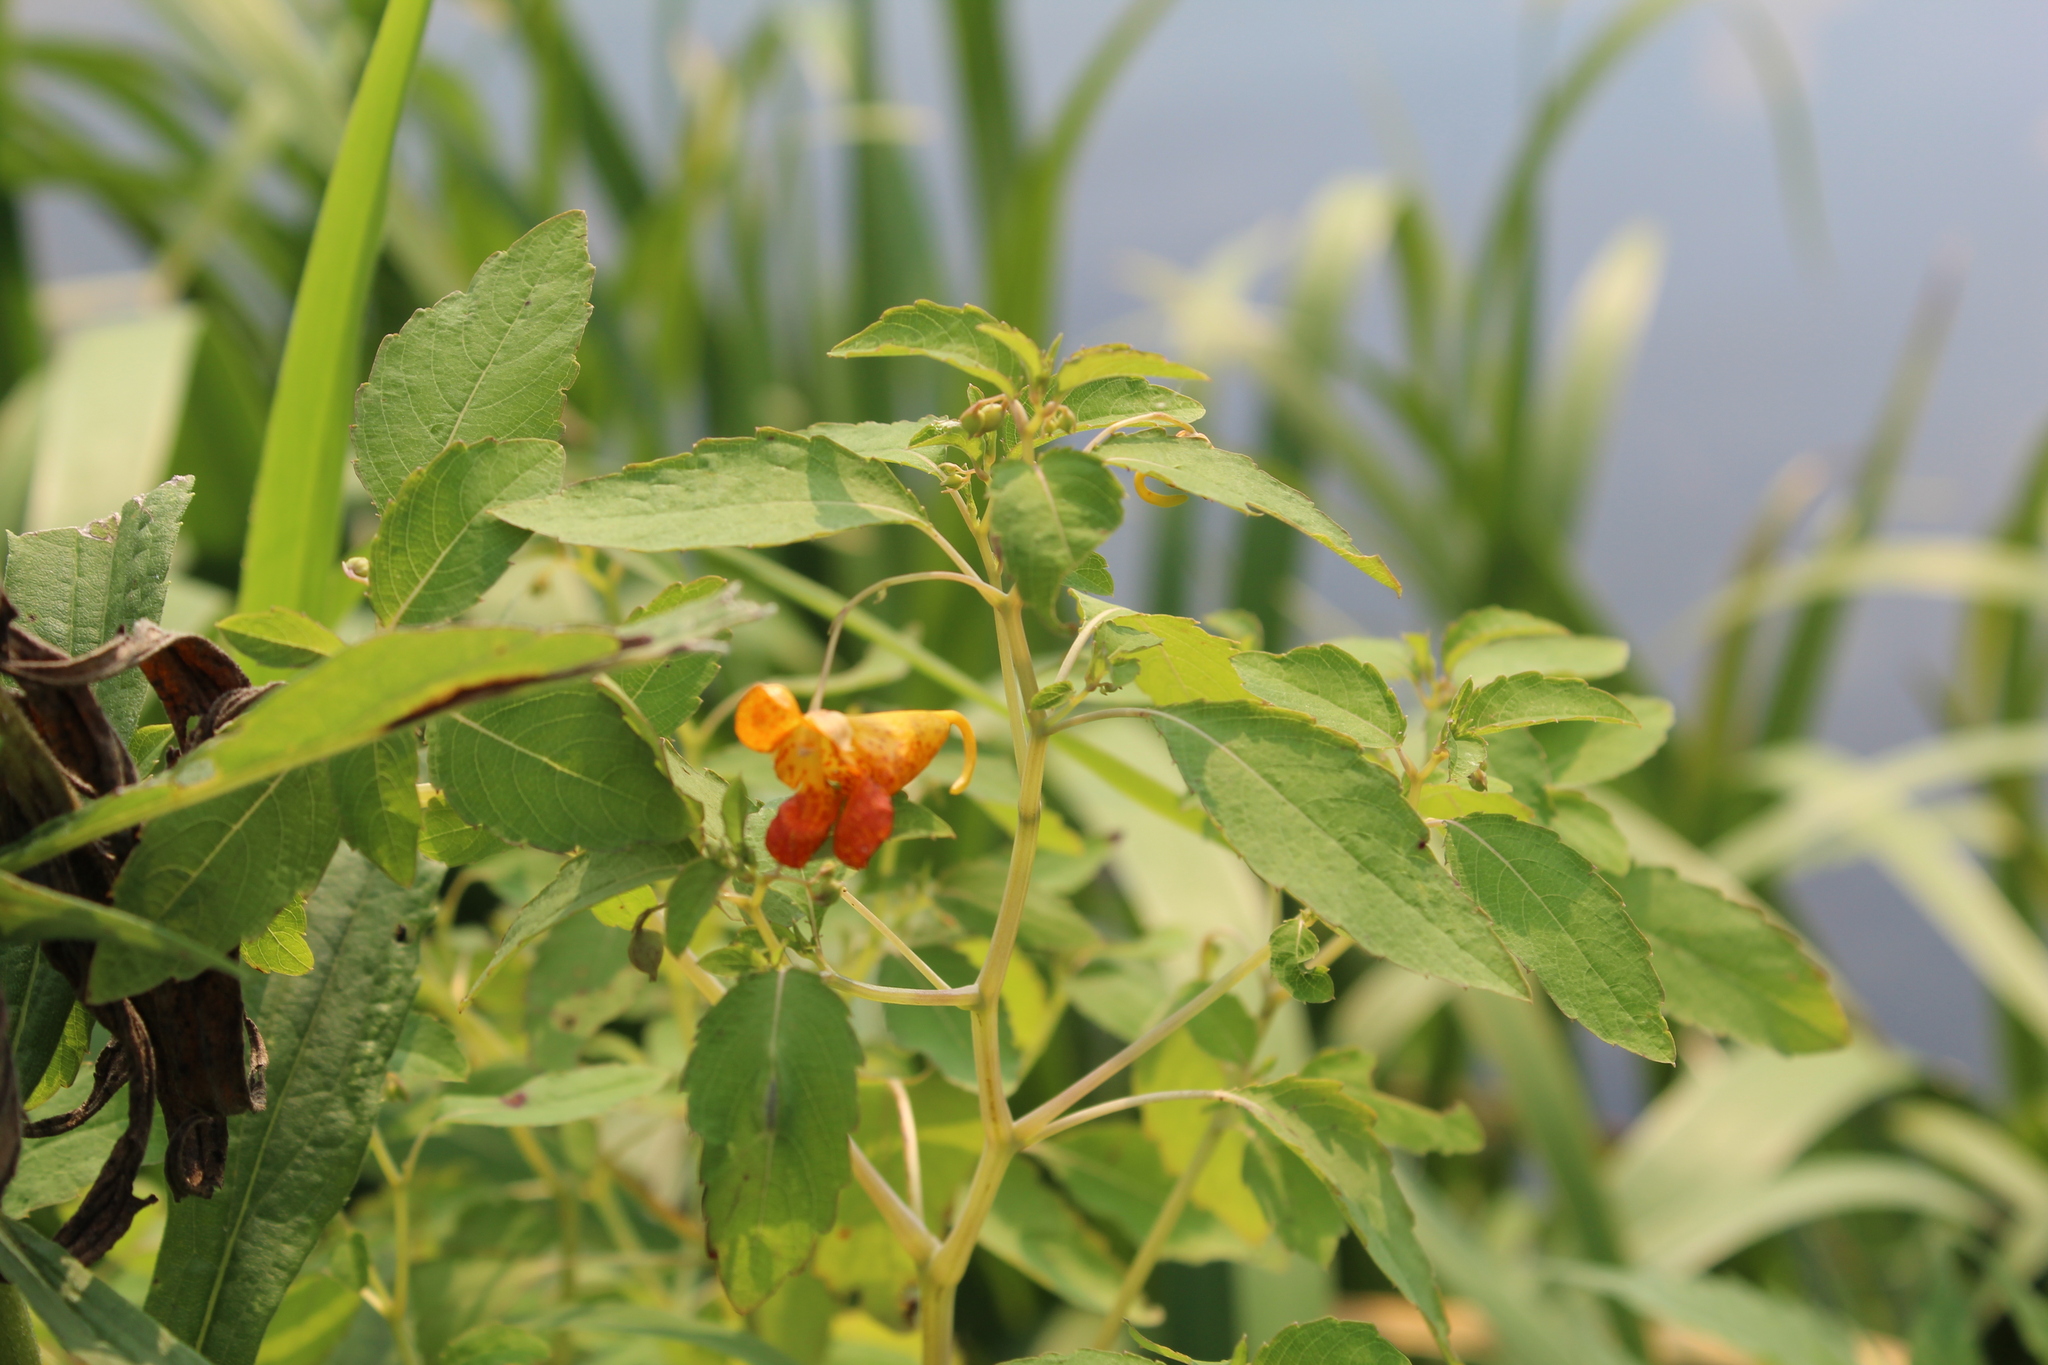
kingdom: Plantae
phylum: Tracheophyta
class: Magnoliopsida
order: Ericales
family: Balsaminaceae
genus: Impatiens
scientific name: Impatiens capensis
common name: Orange balsam
